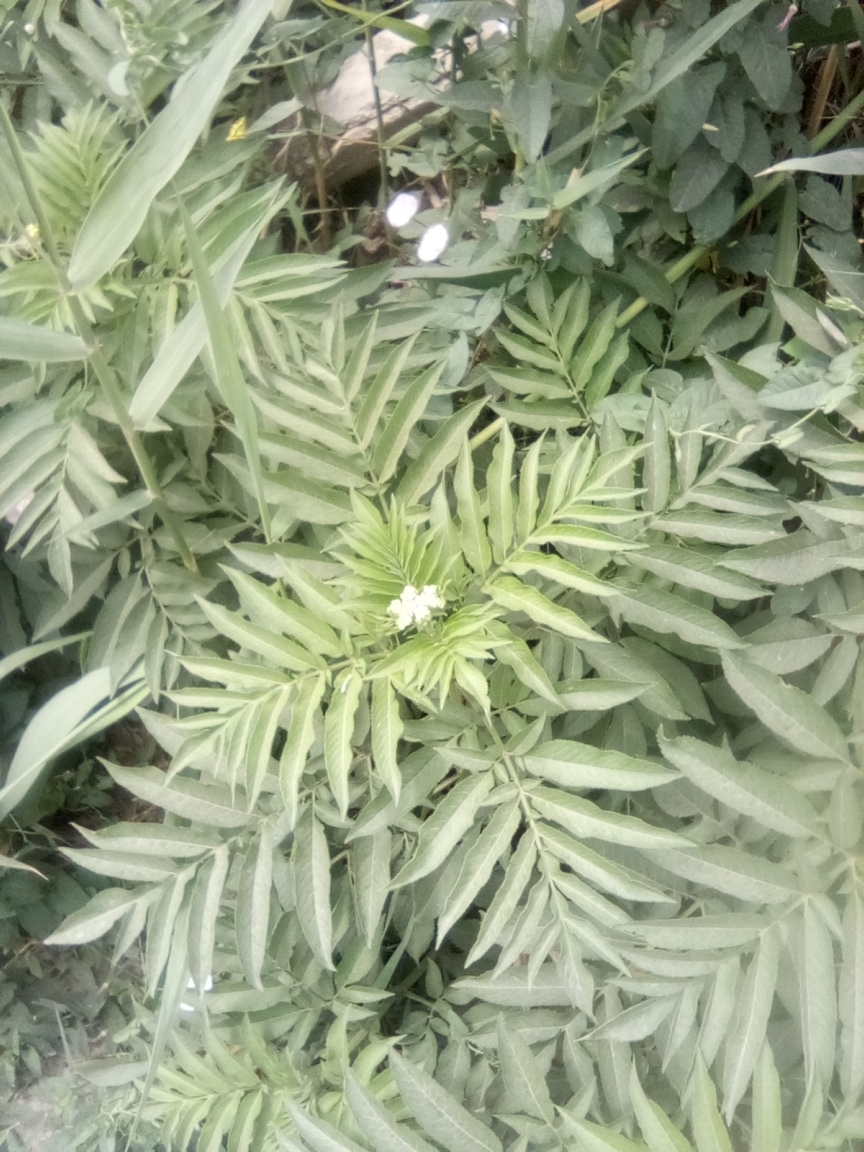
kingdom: Plantae
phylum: Tracheophyta
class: Magnoliopsida
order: Dipsacales
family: Viburnaceae
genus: Sambucus
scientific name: Sambucus ebulus
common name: Dwarf elder
